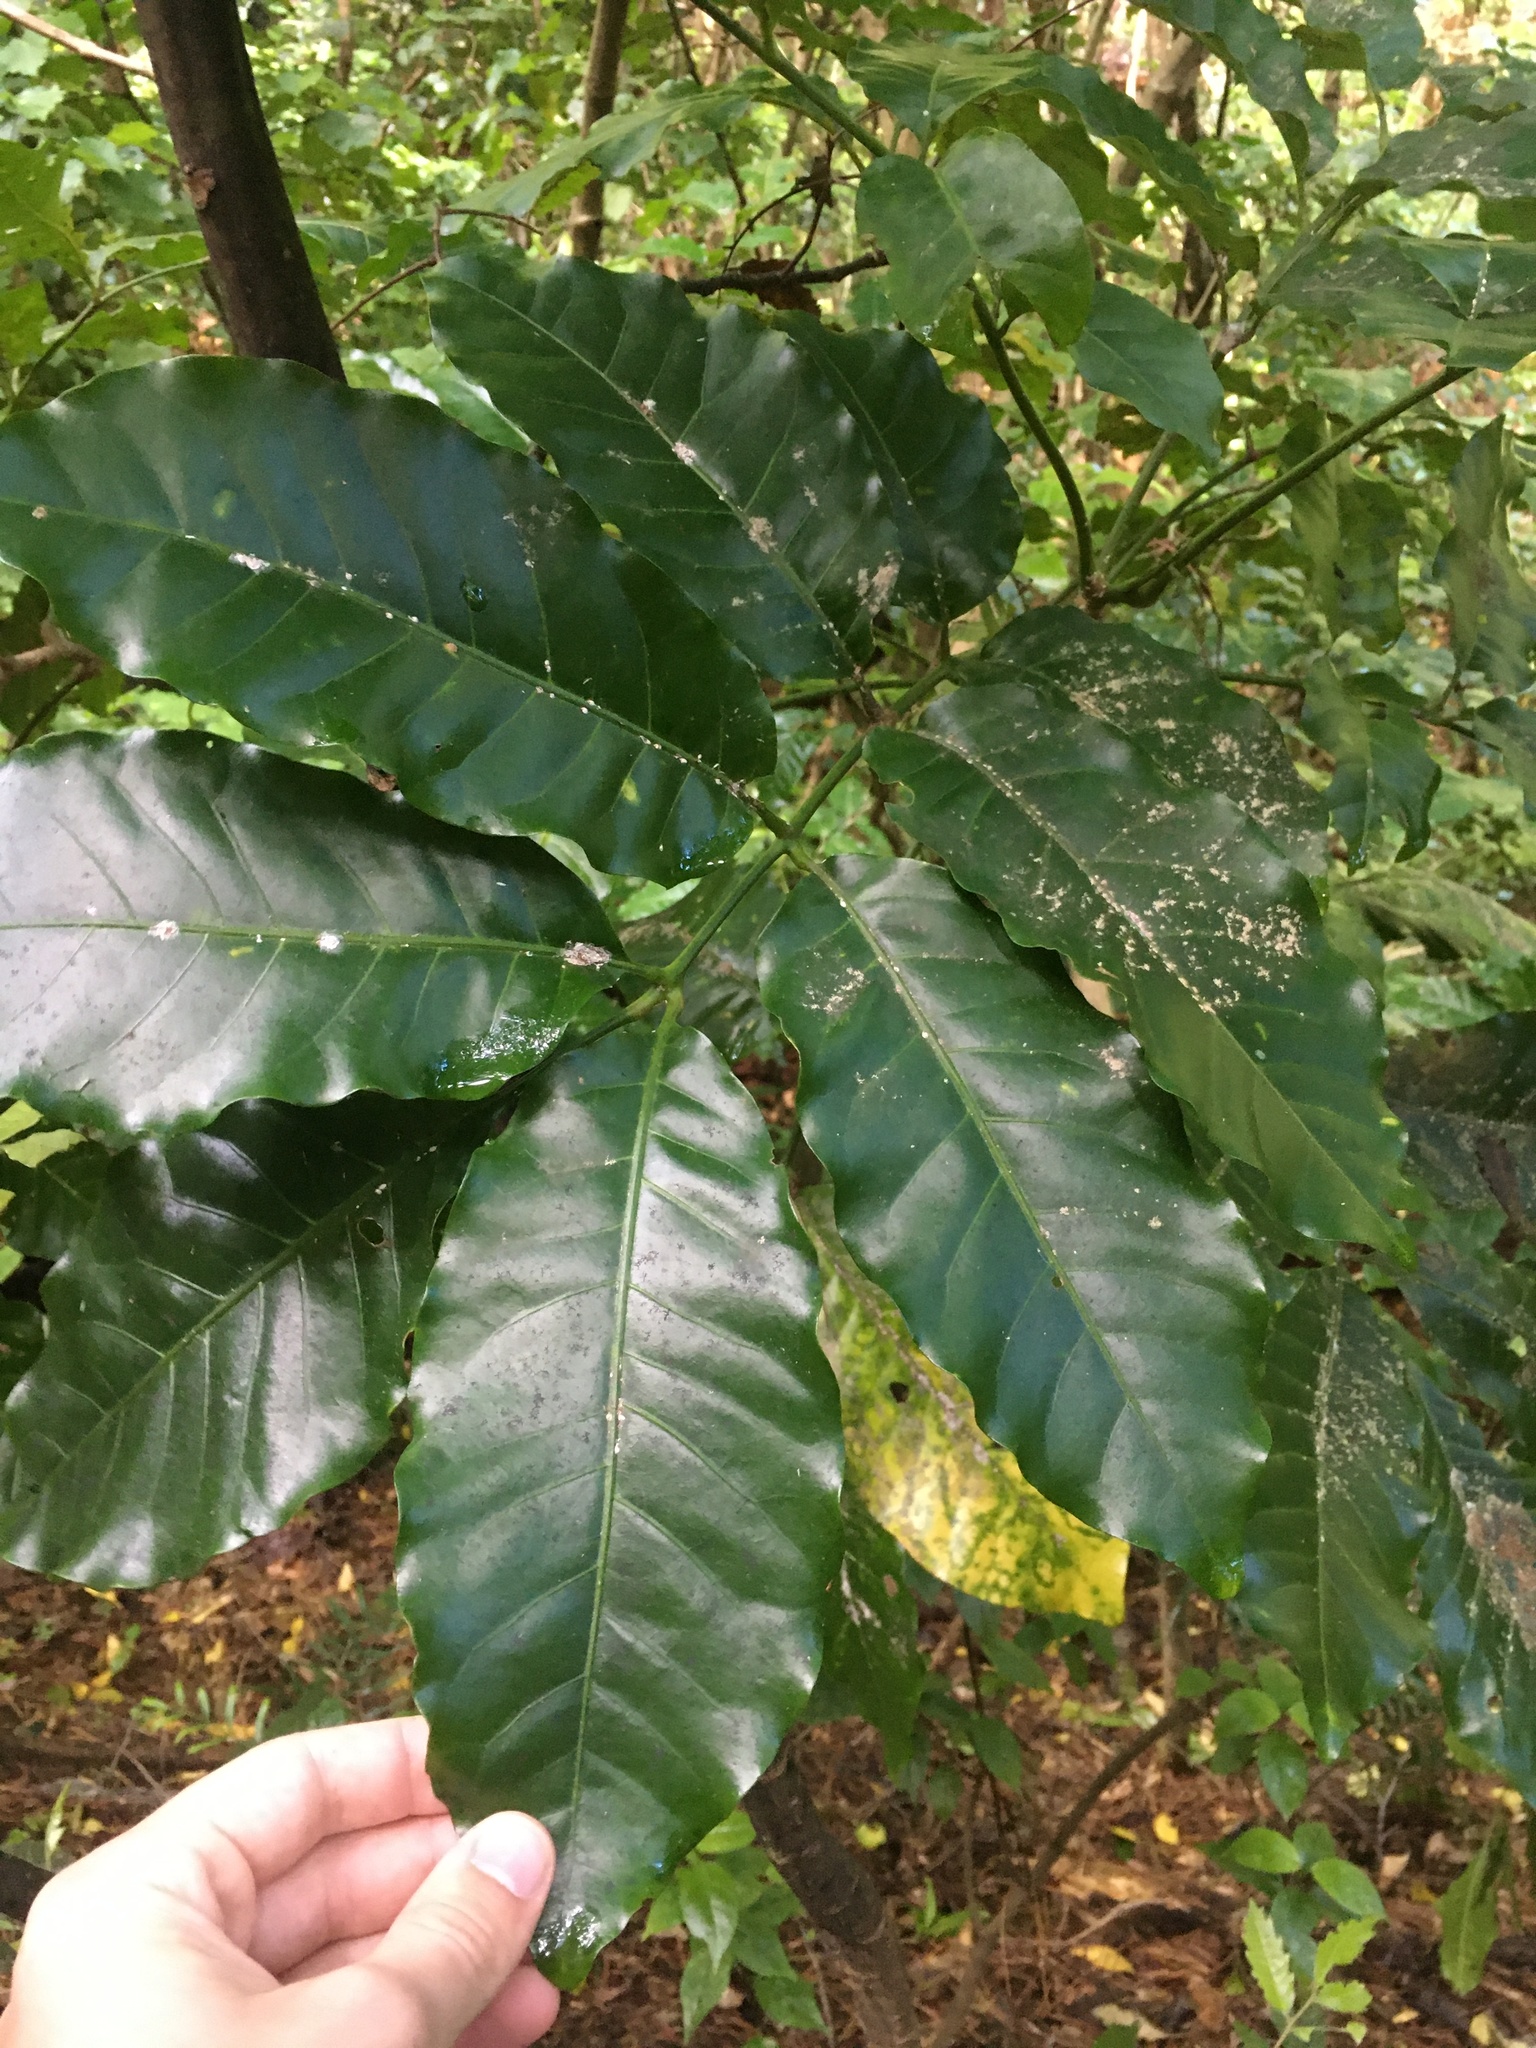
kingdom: Plantae
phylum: Tracheophyta
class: Magnoliopsida
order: Sapindales
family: Meliaceae
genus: Didymocheton
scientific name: Didymocheton spectabilis
